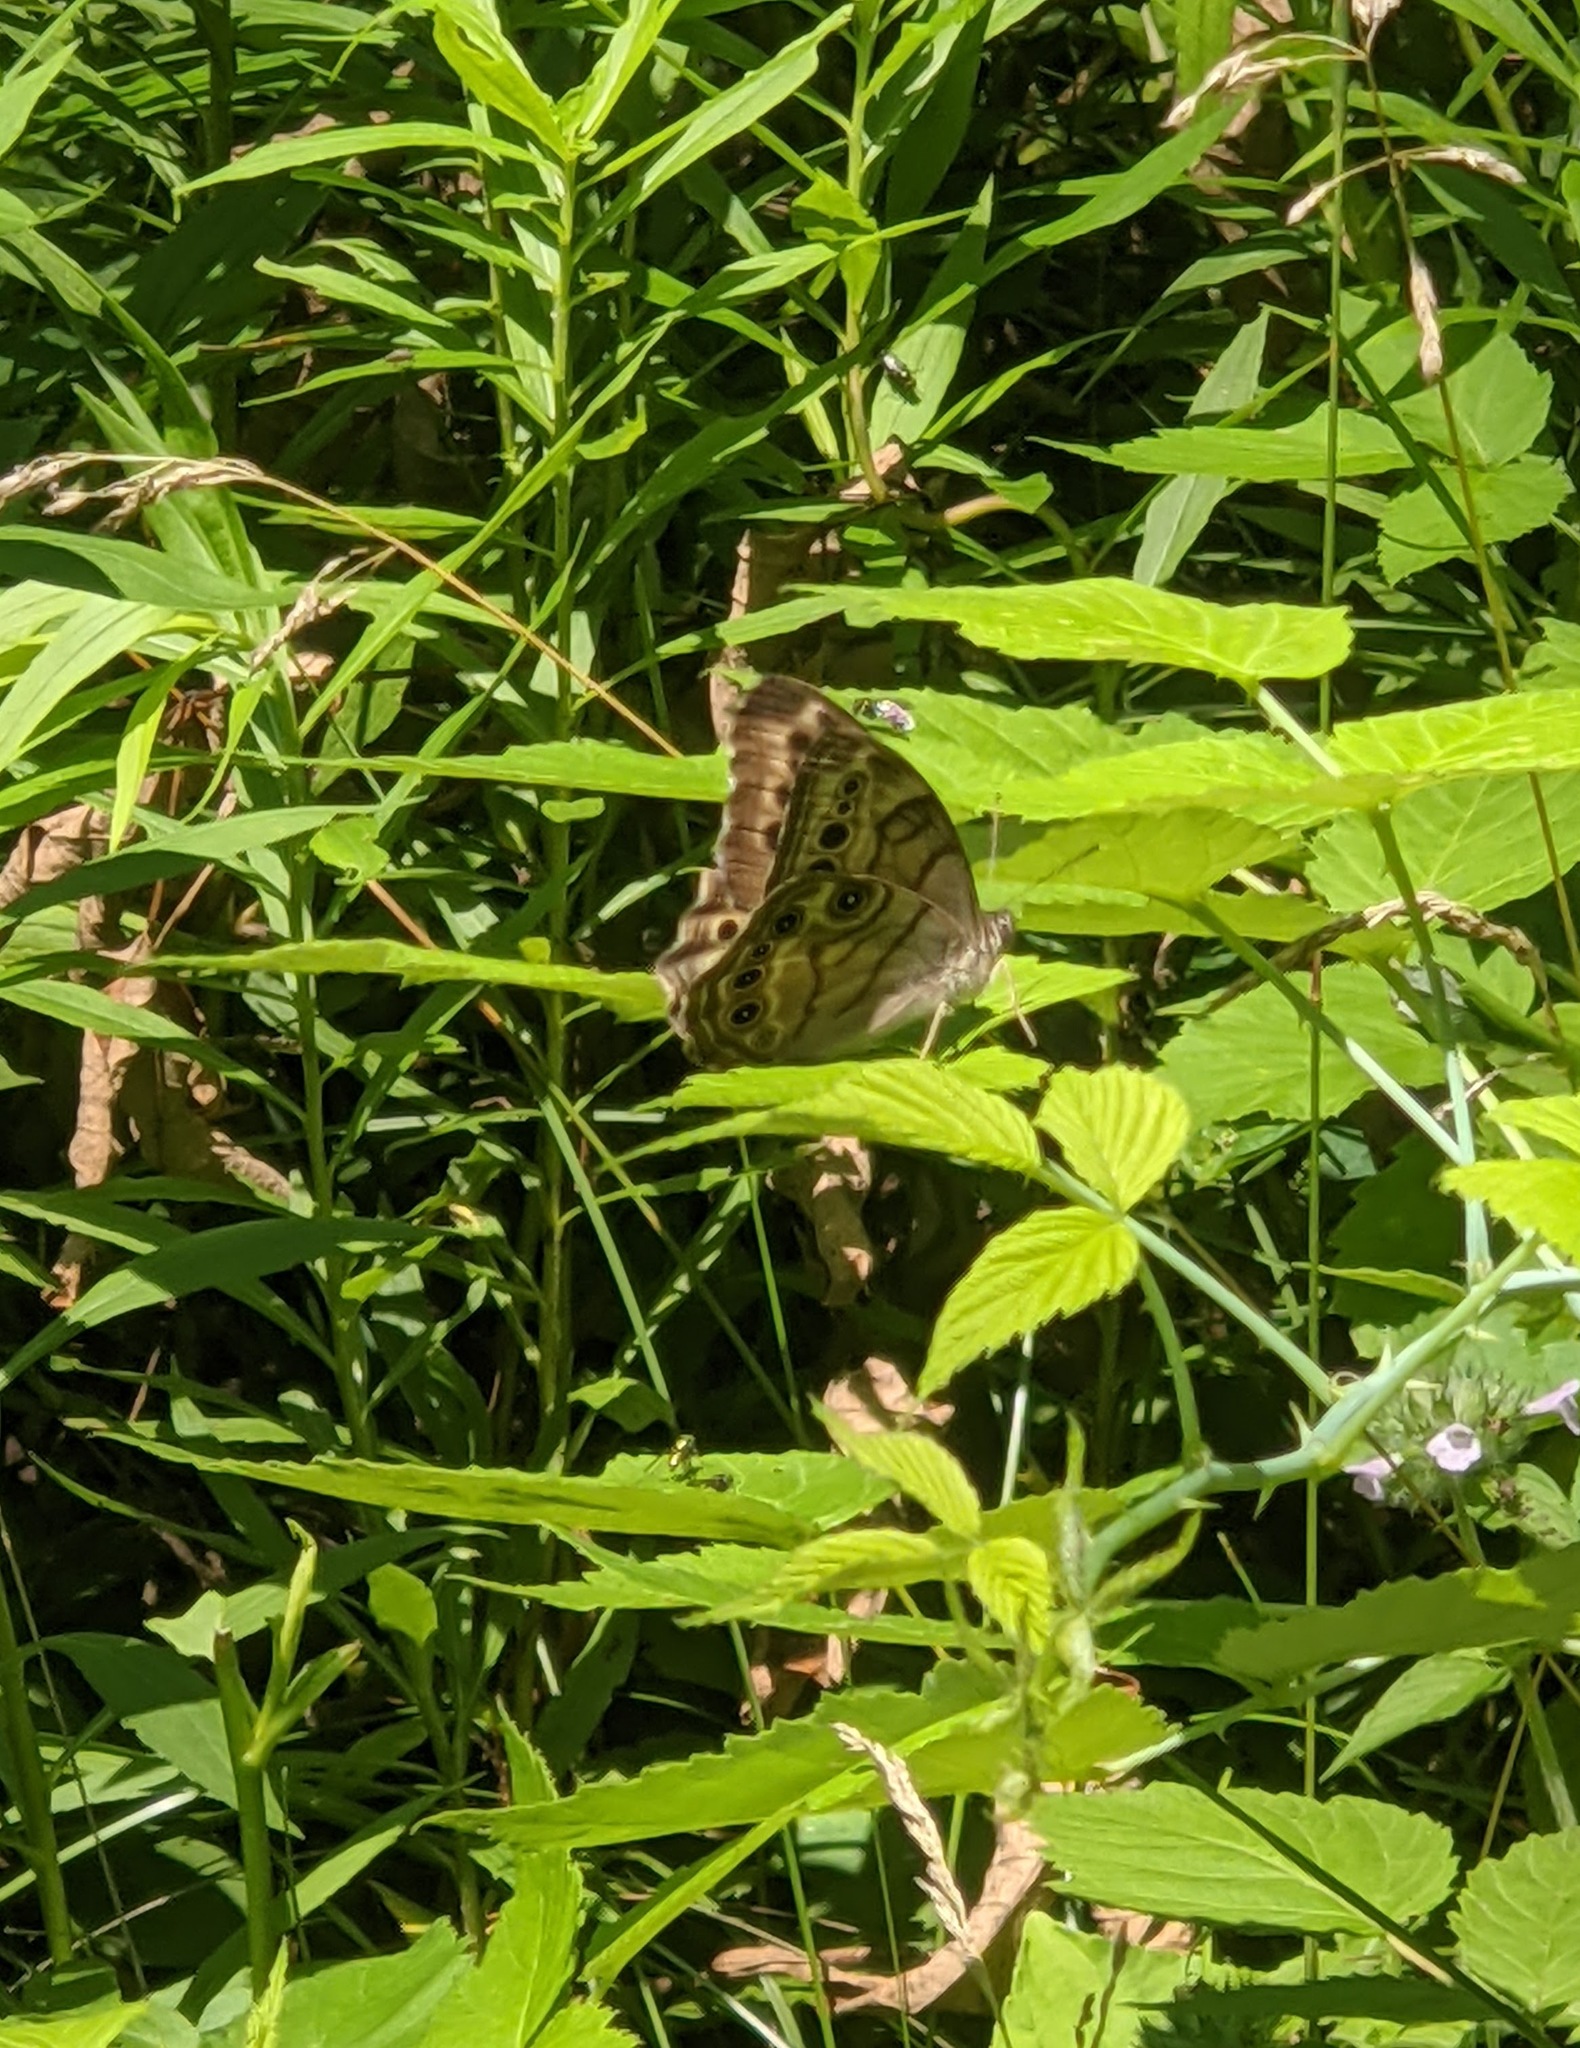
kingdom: Animalia
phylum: Arthropoda
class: Insecta
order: Lepidoptera
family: Nymphalidae
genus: Lethe
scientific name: Lethe anthedon
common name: Northern pearly-eye
